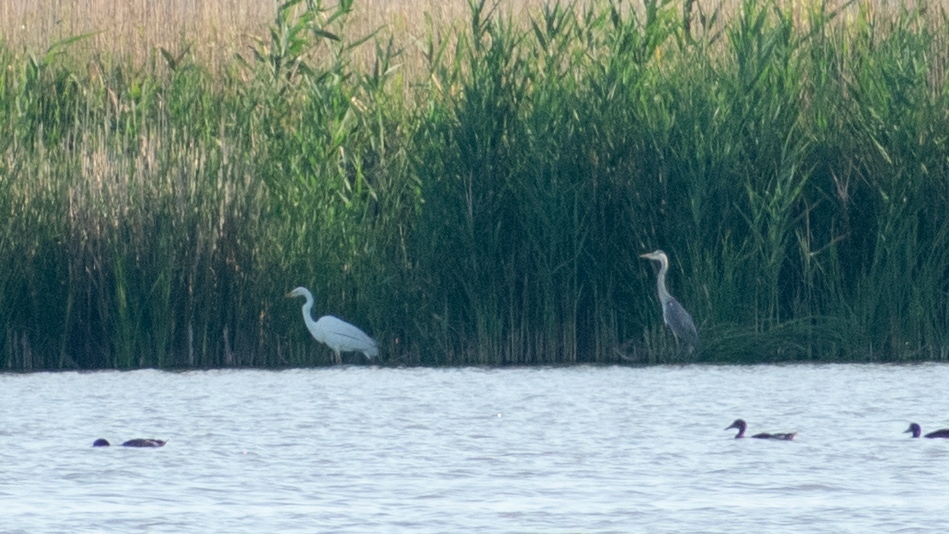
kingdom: Animalia
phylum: Chordata
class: Aves
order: Pelecaniformes
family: Ardeidae
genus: Ardea
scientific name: Ardea alba
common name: Great egret
